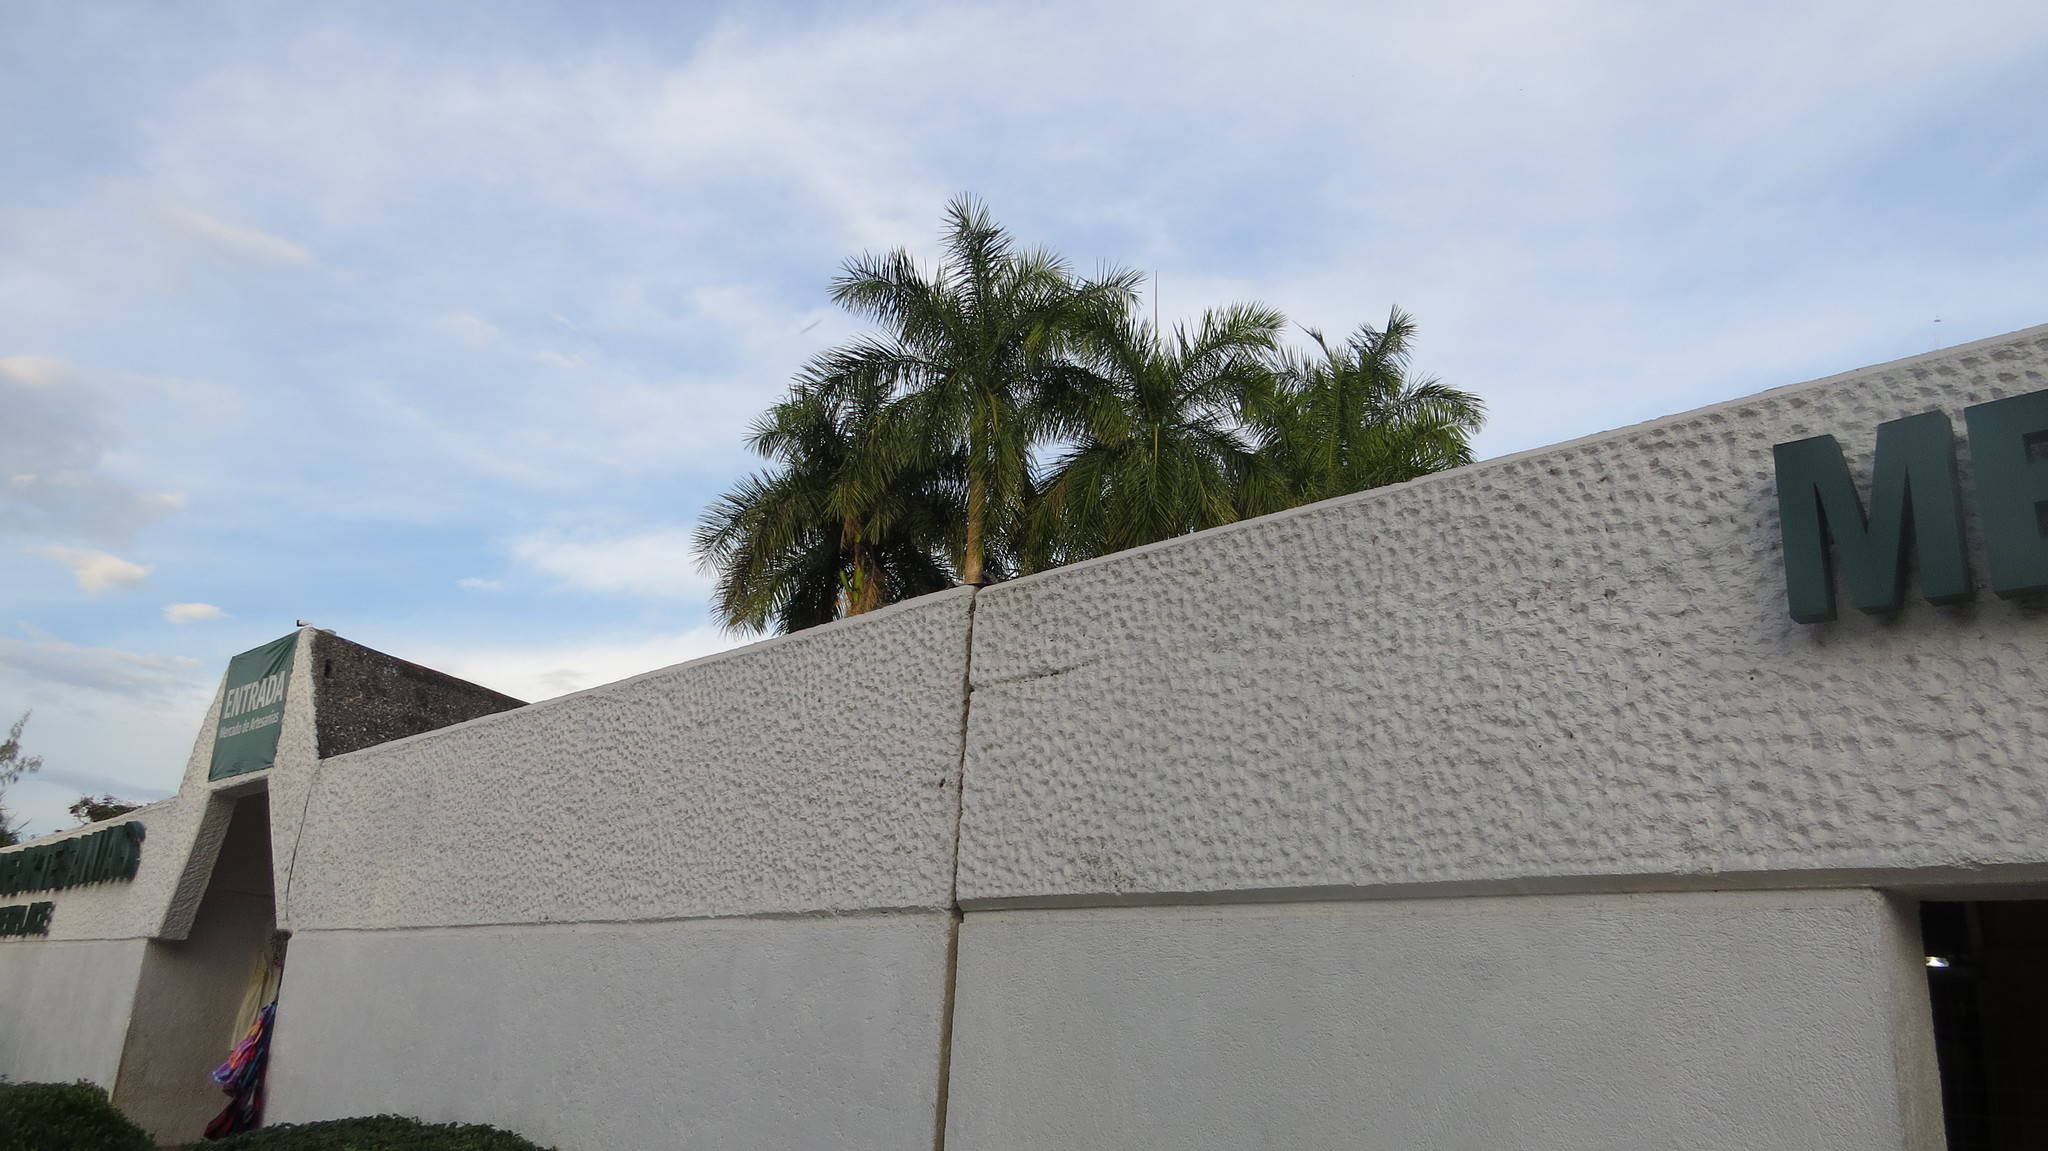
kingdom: Animalia
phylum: Chordata
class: Squamata
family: Iguanidae
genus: Ctenosaura
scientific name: Ctenosaura similis
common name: Black spiny-tailed iguana
